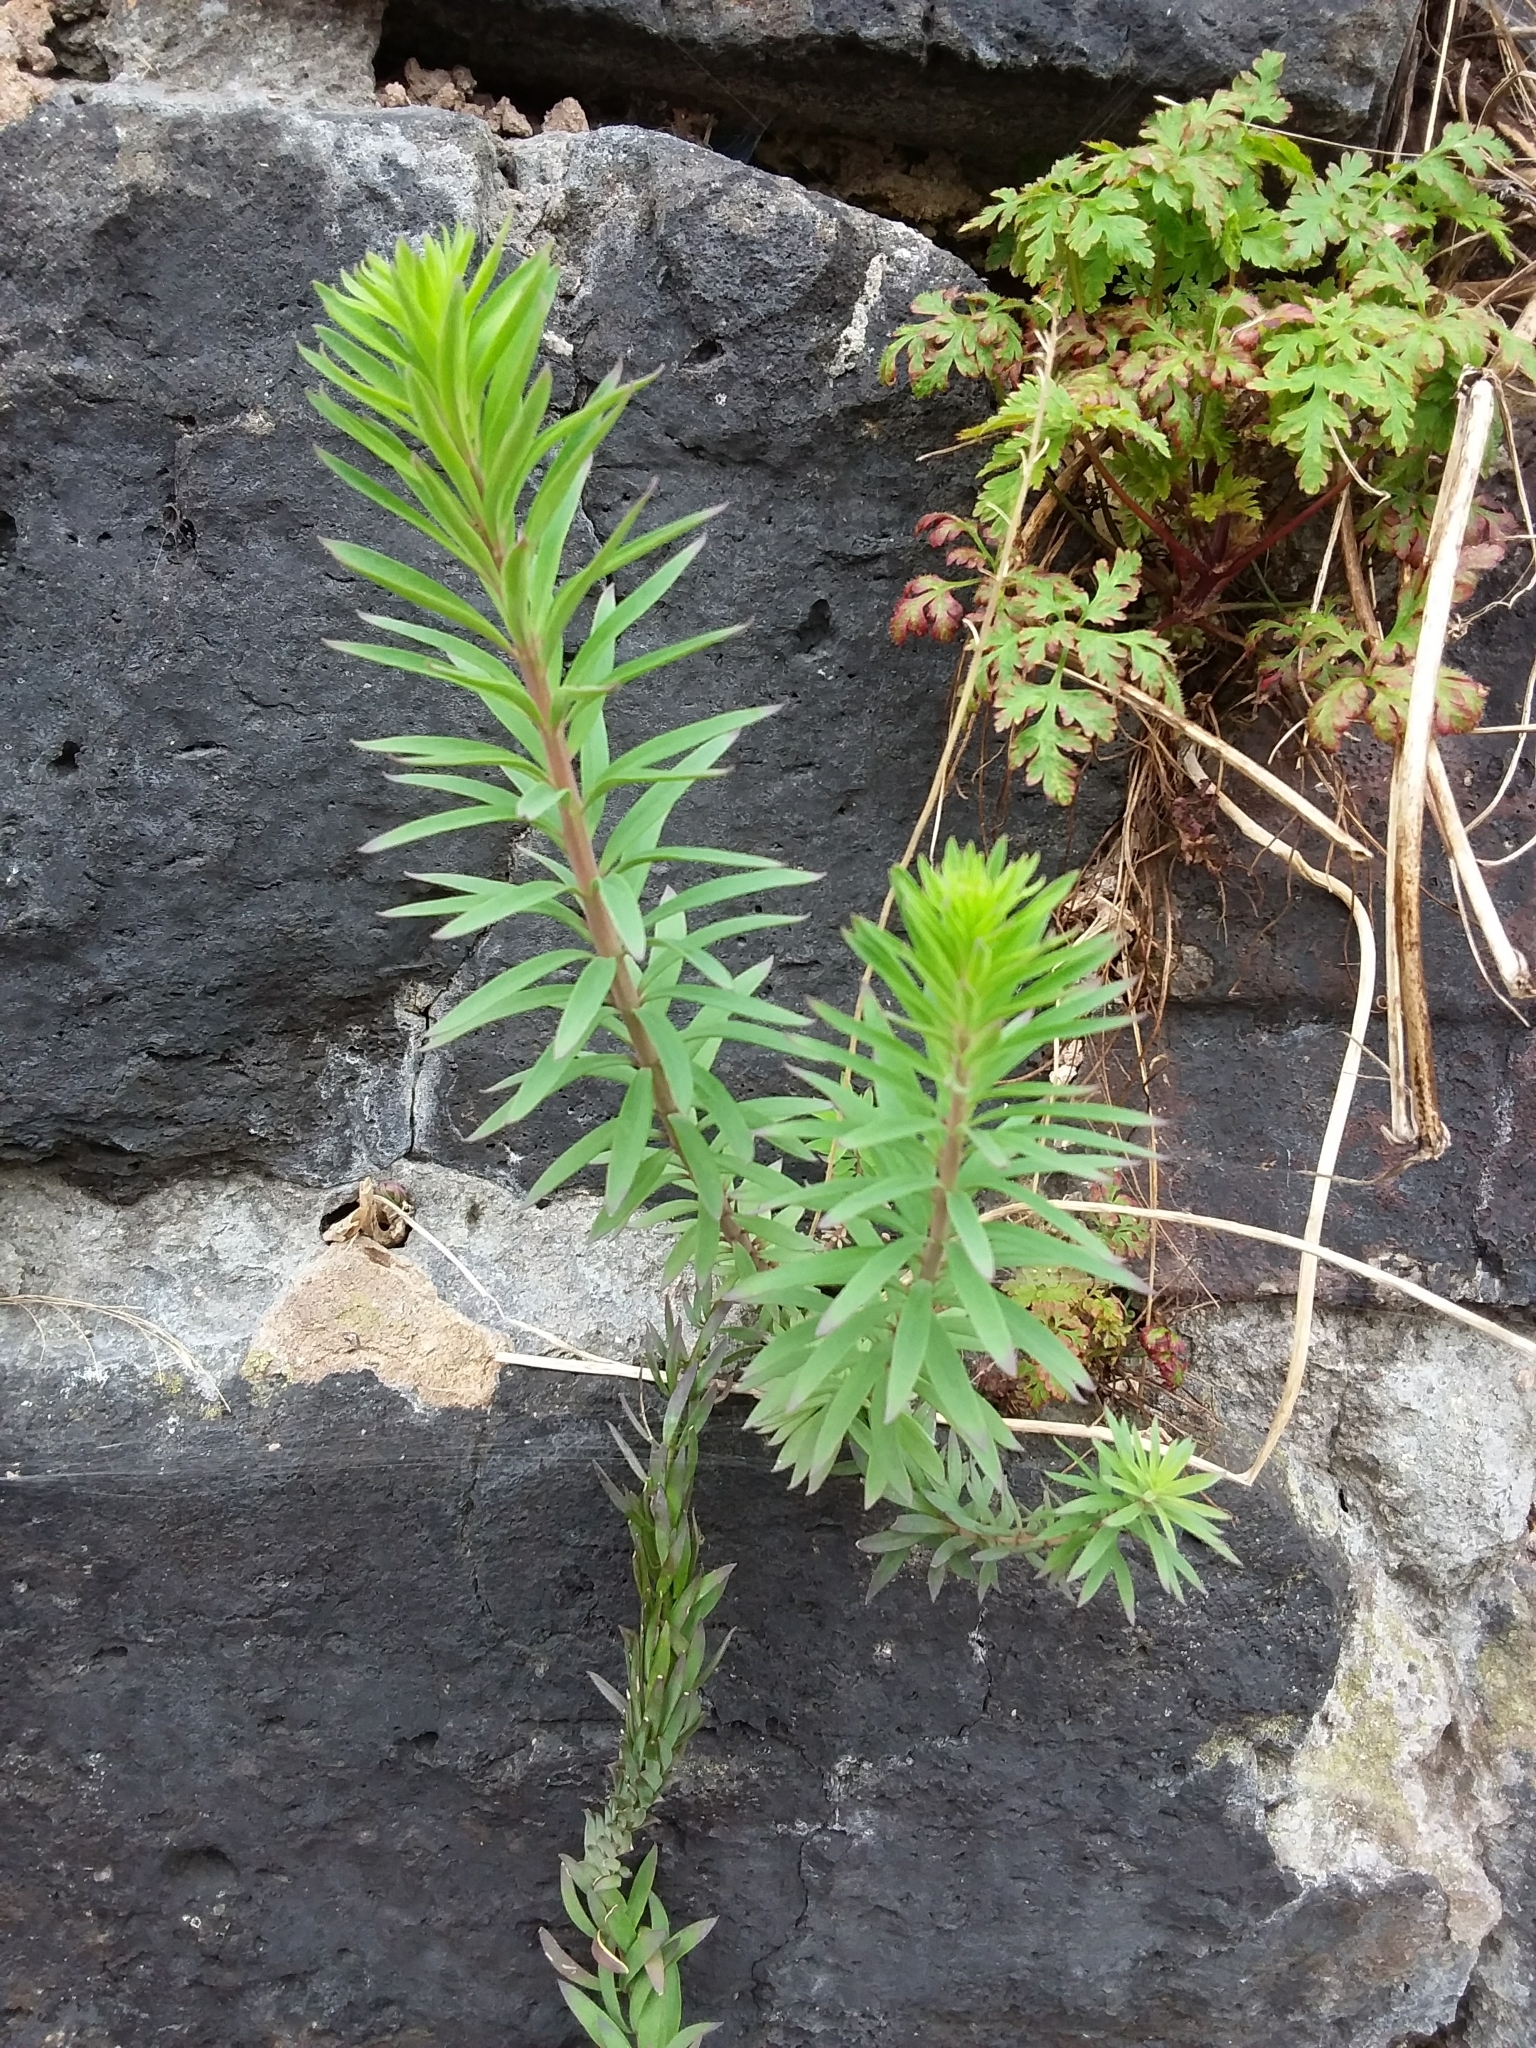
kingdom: Plantae
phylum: Tracheophyta
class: Magnoliopsida
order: Lamiales
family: Plantaginaceae
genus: Linaria
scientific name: Linaria purpurea
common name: Purple toadflax
